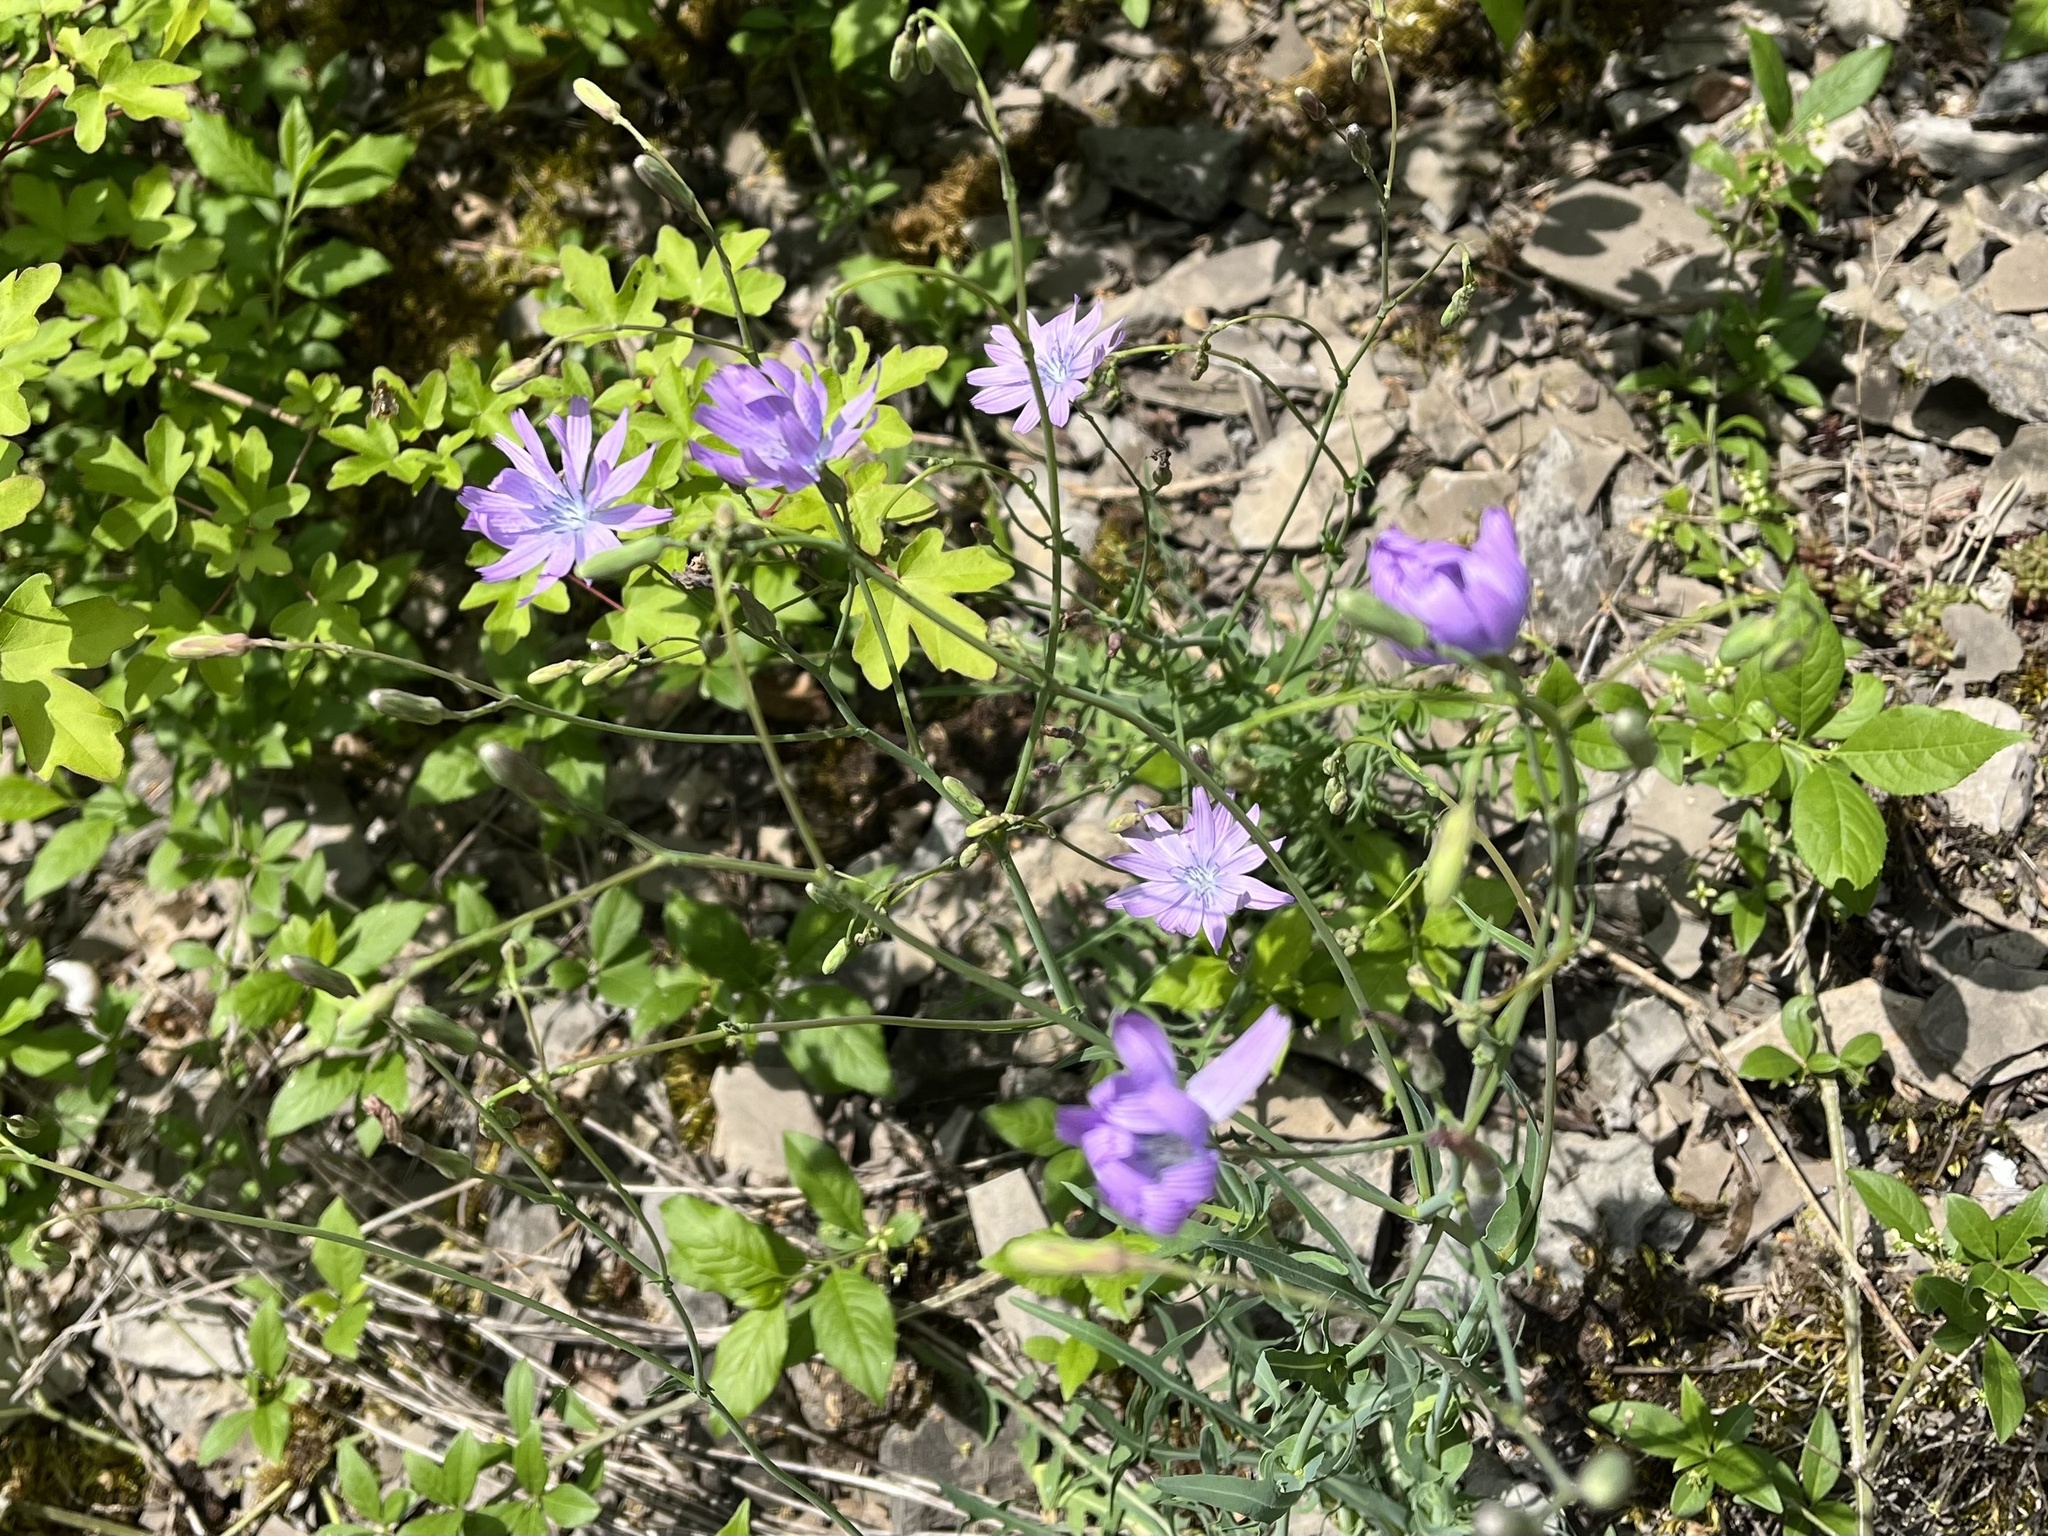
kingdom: Plantae
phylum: Tracheophyta
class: Magnoliopsida
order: Asterales
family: Asteraceae
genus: Lactuca
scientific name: Lactuca perennis
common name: Mountain lettuce
